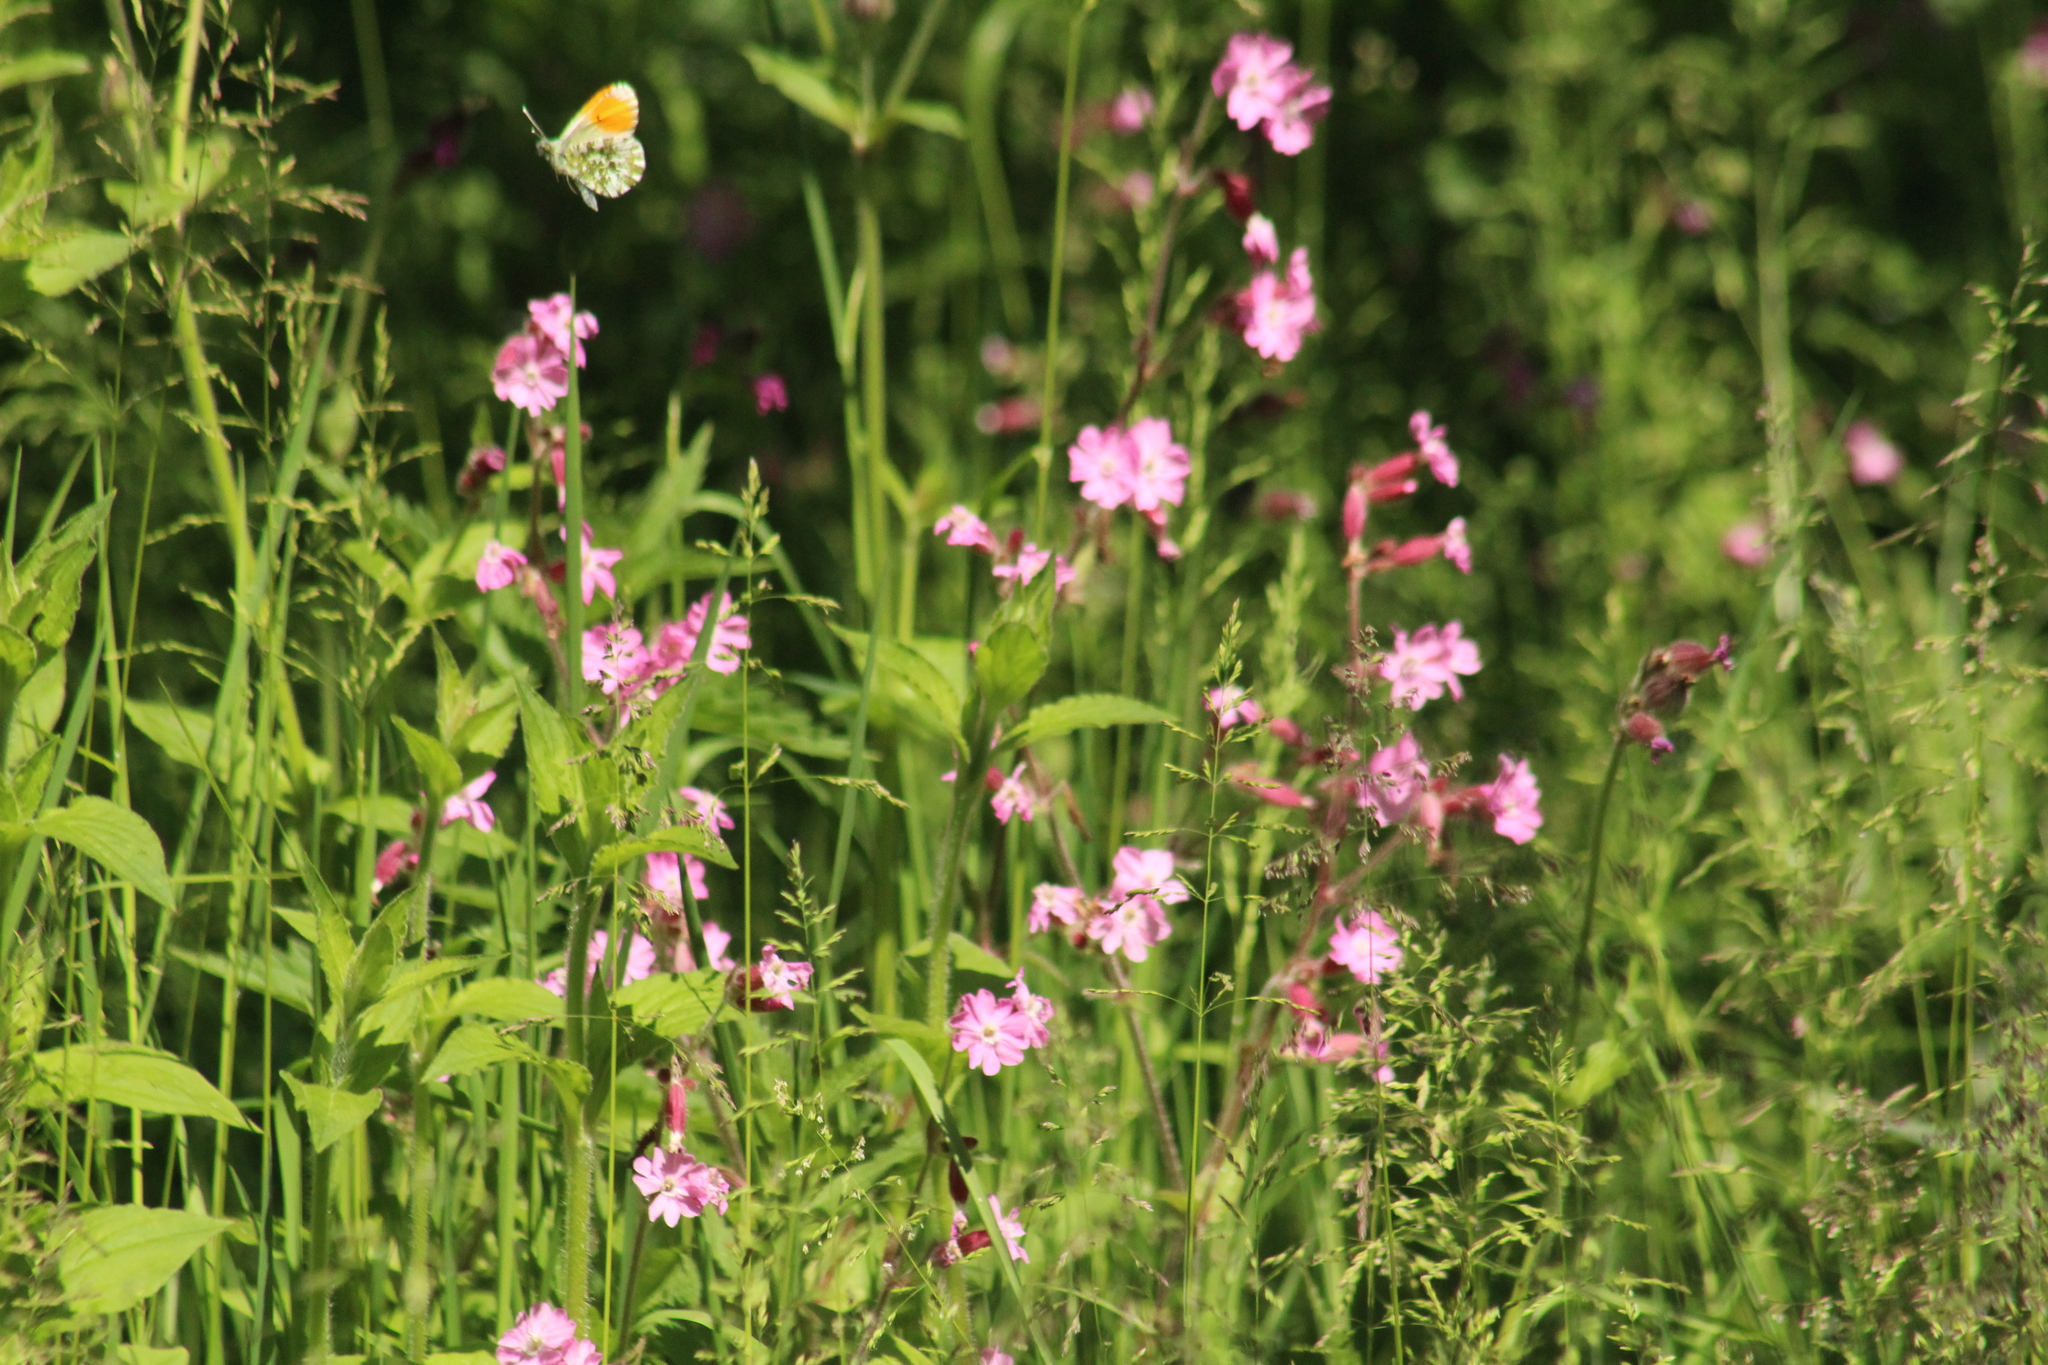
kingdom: Animalia
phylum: Arthropoda
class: Insecta
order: Lepidoptera
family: Pieridae
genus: Anthocharis
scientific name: Anthocharis cardamines
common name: Orange-tip
